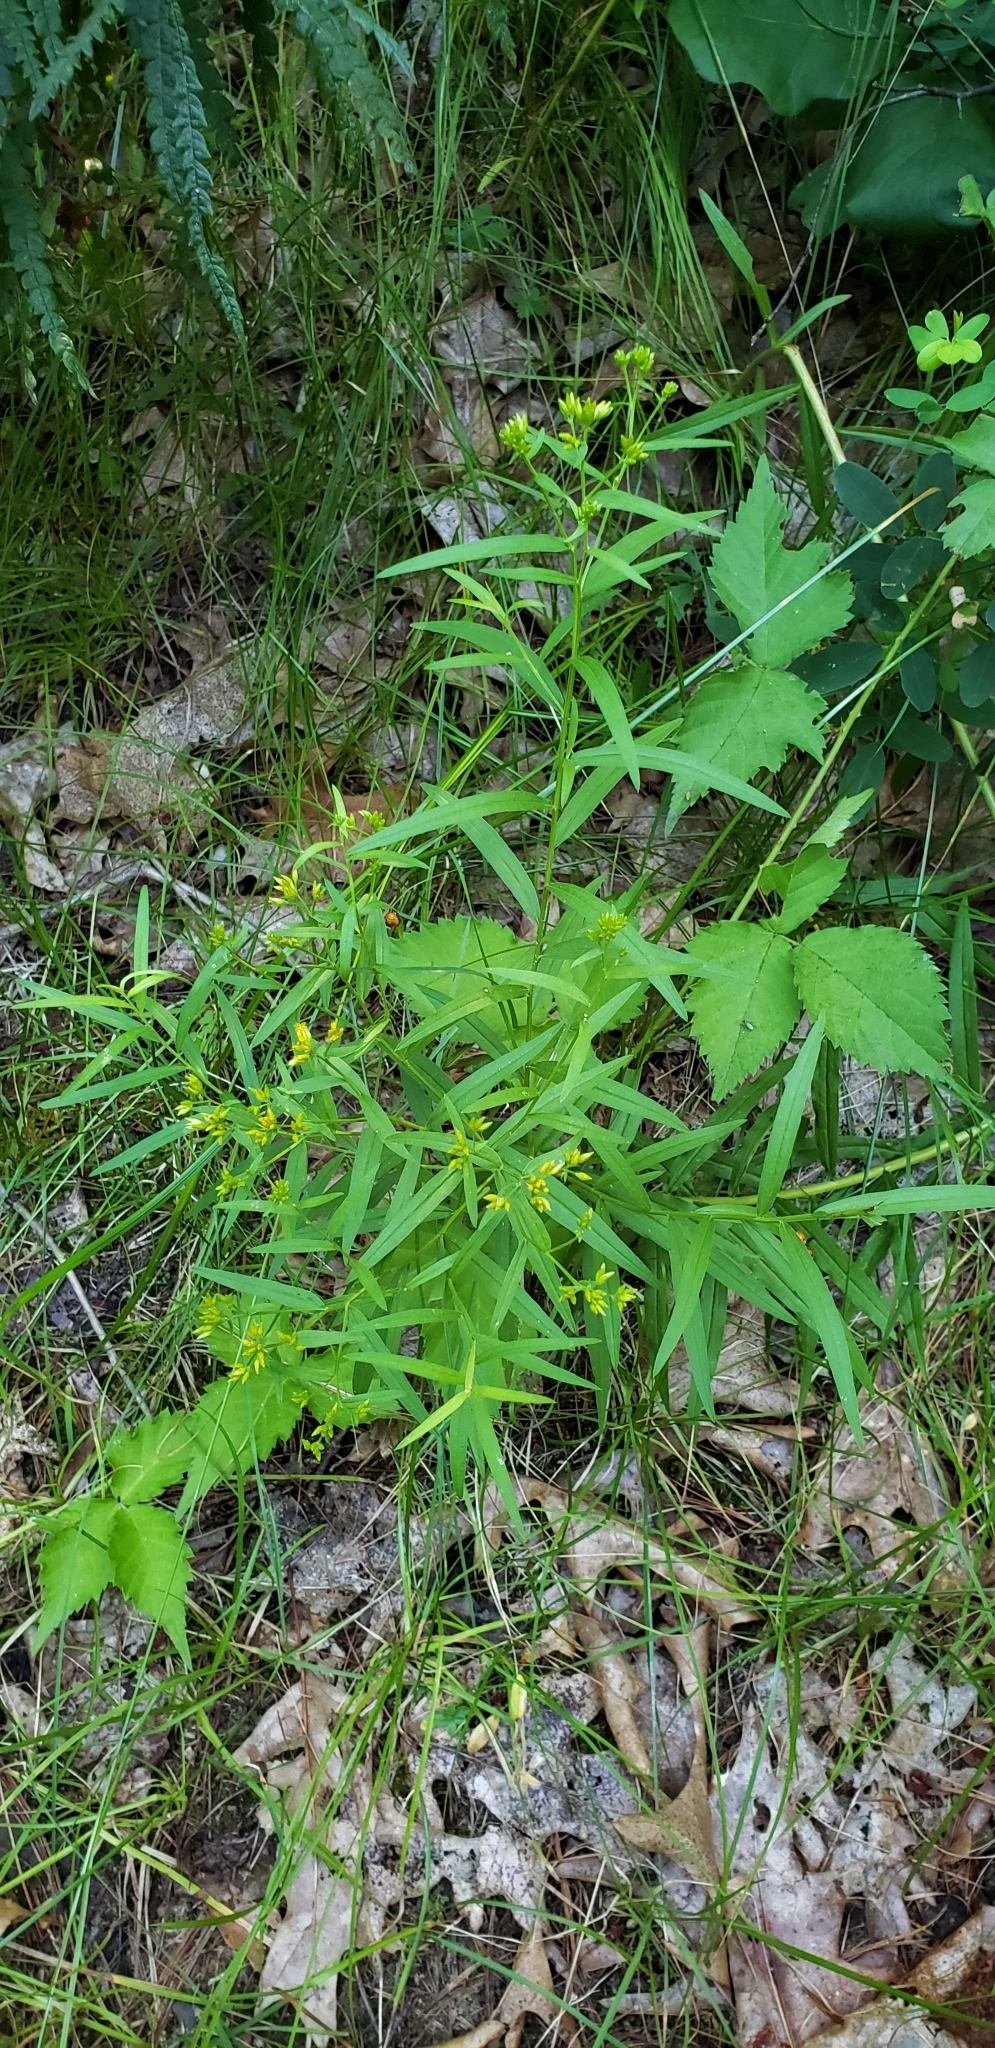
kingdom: Plantae
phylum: Tracheophyta
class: Magnoliopsida
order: Asterales
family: Asteraceae
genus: Euthamia
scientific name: Euthamia graminifolia
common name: Common goldentop
